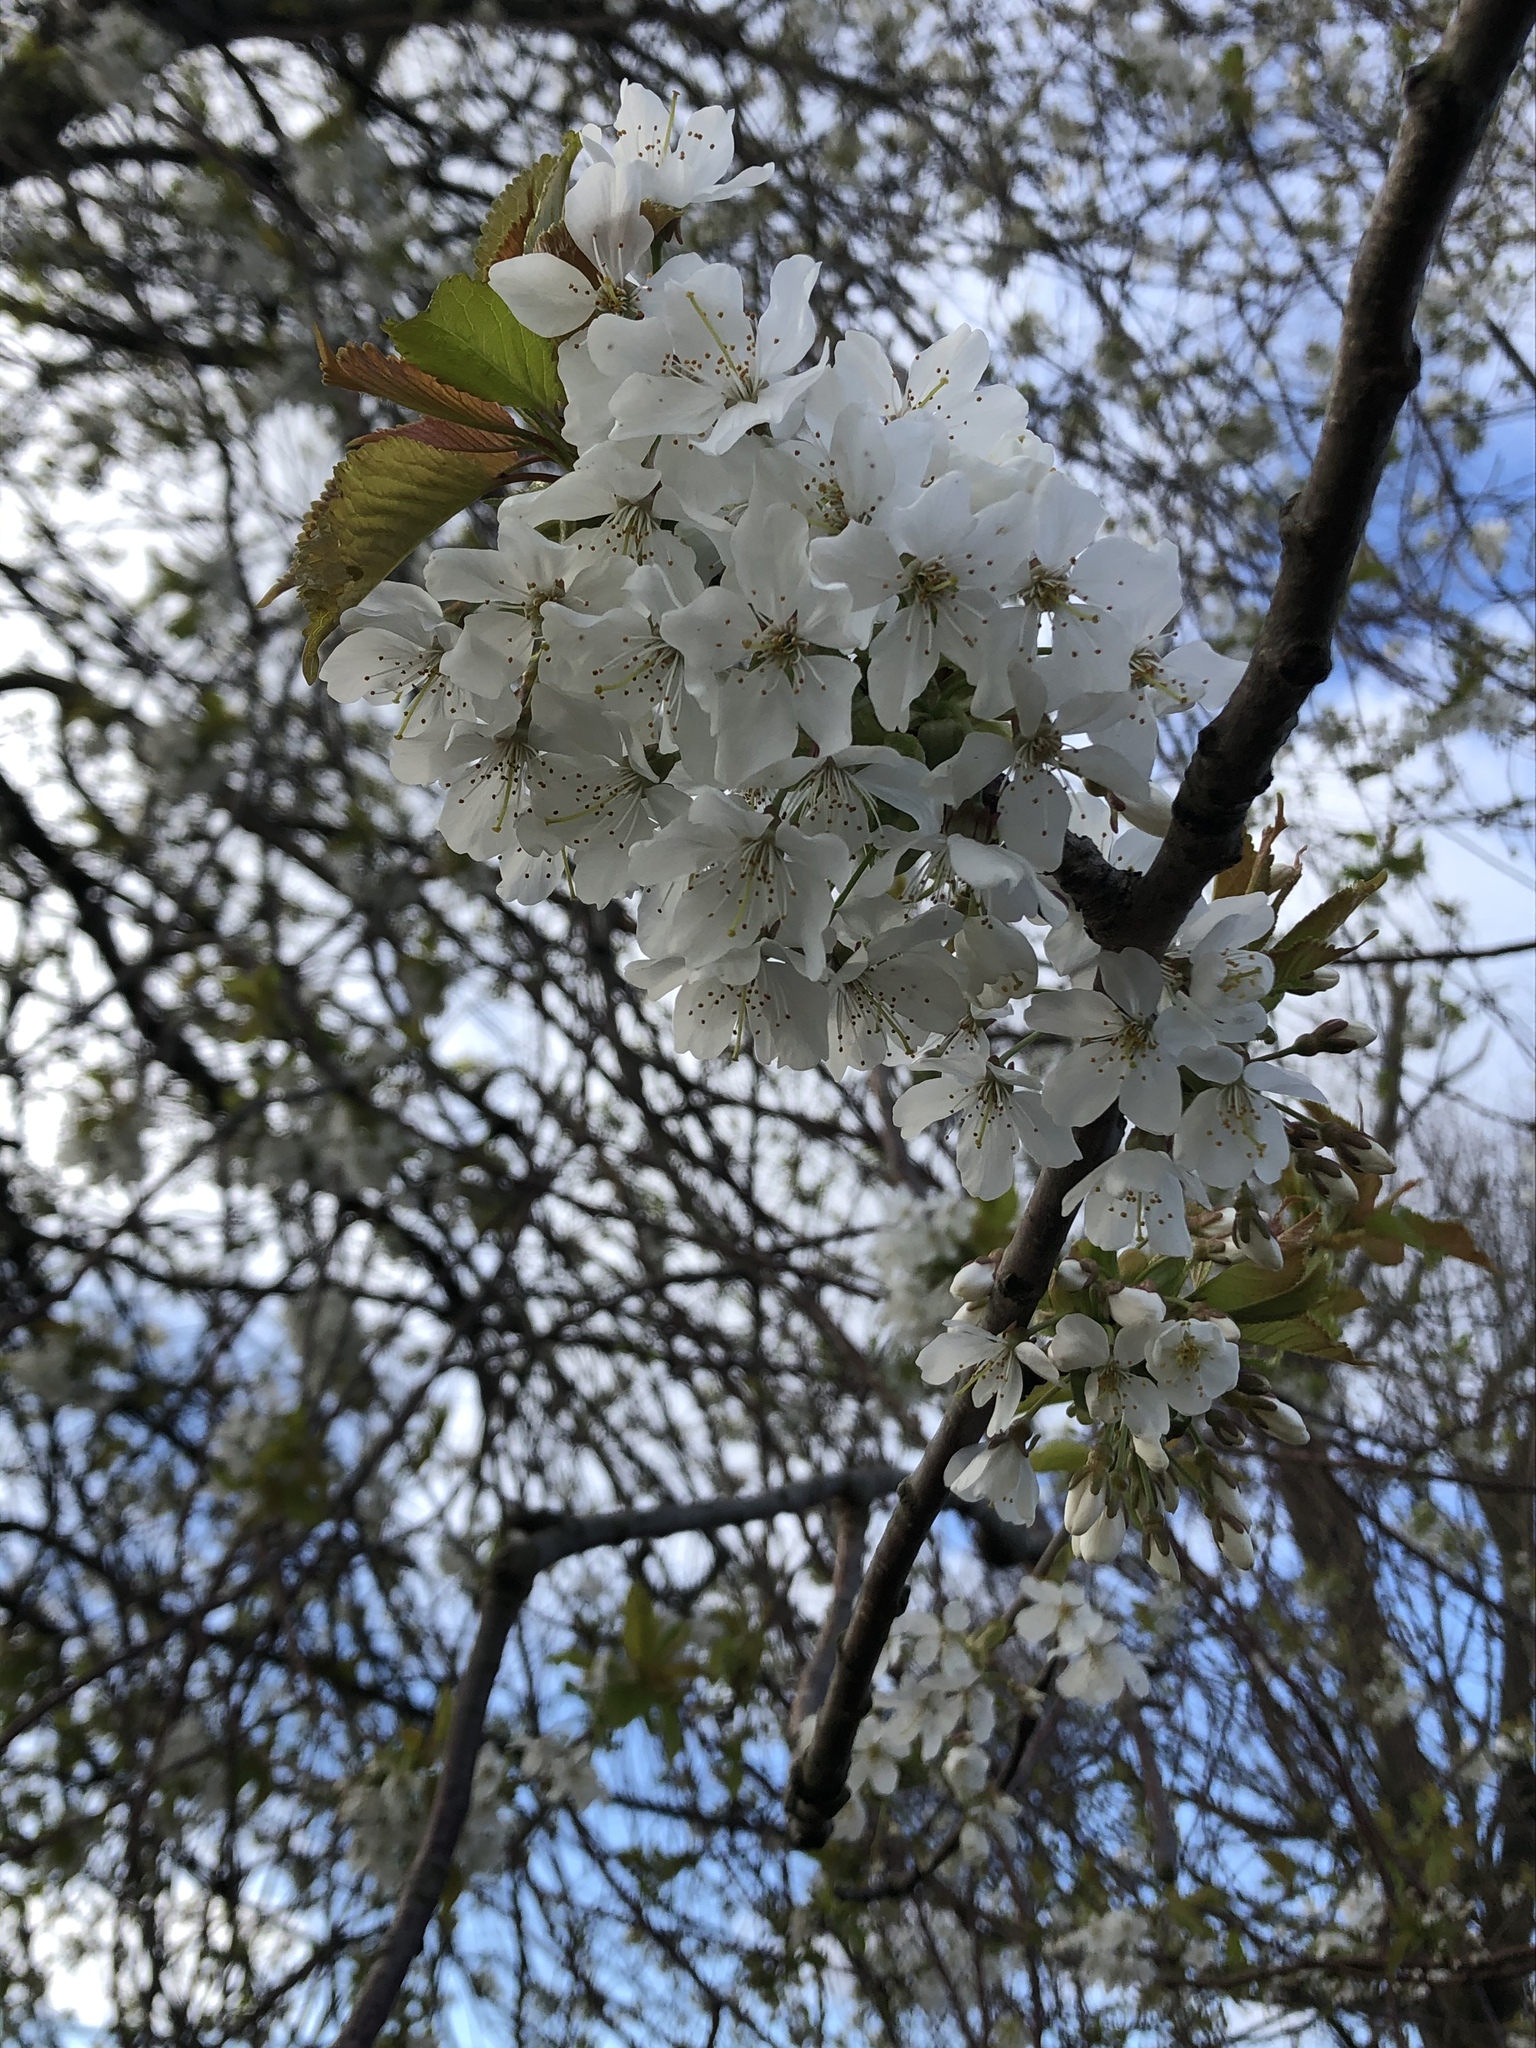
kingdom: Plantae
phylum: Tracheophyta
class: Magnoliopsida
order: Rosales
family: Rosaceae
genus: Prunus
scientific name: Prunus avium
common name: Sweet cherry
